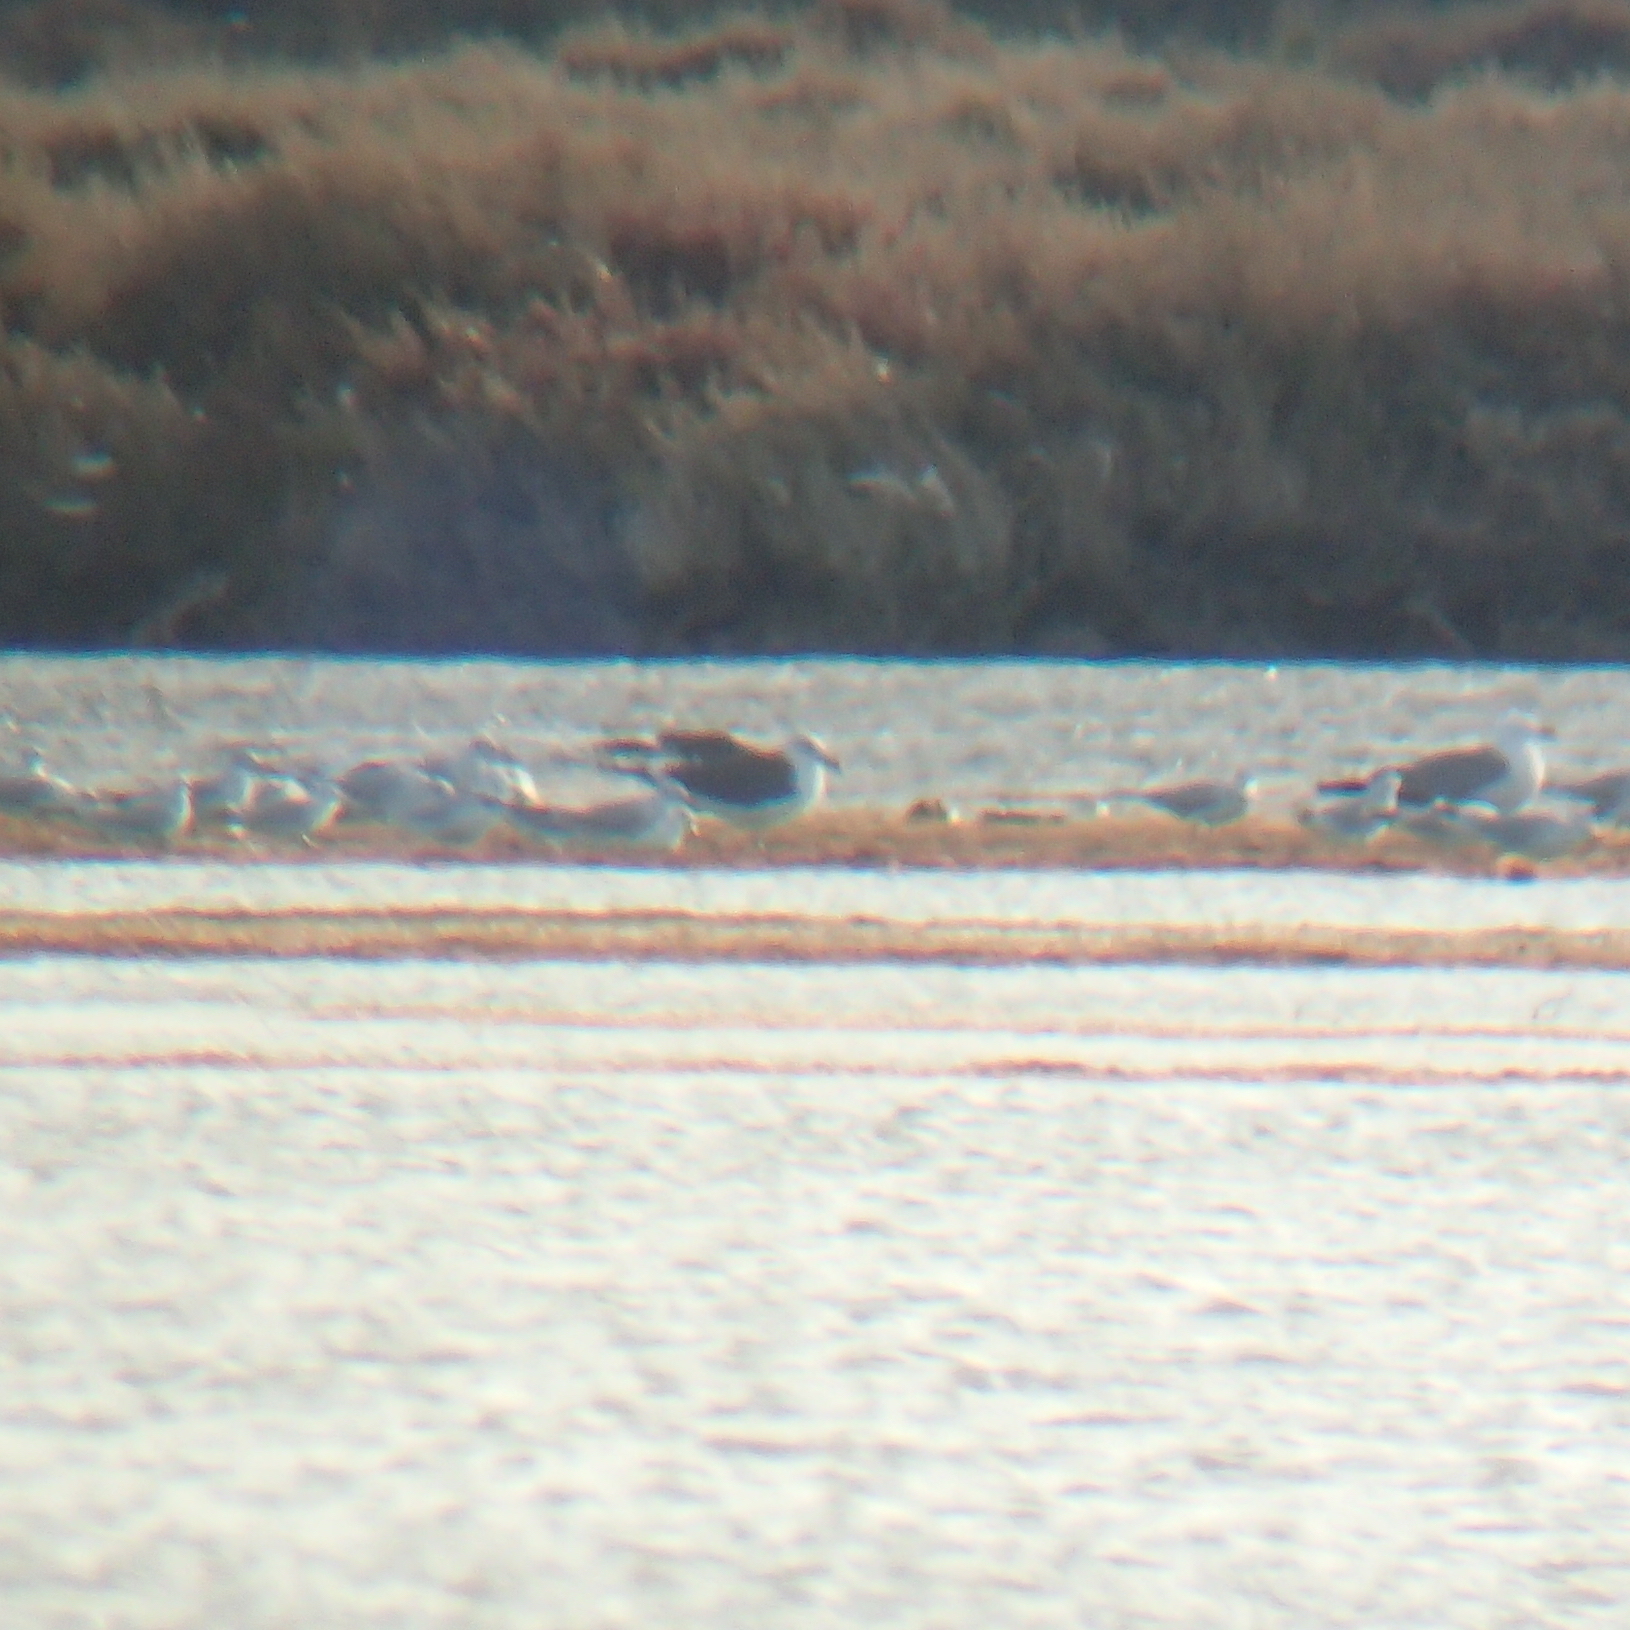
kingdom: Animalia
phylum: Chordata
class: Aves
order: Charadriiformes
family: Laridae
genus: Larus
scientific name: Larus fuscus
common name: Lesser black-backed gull
